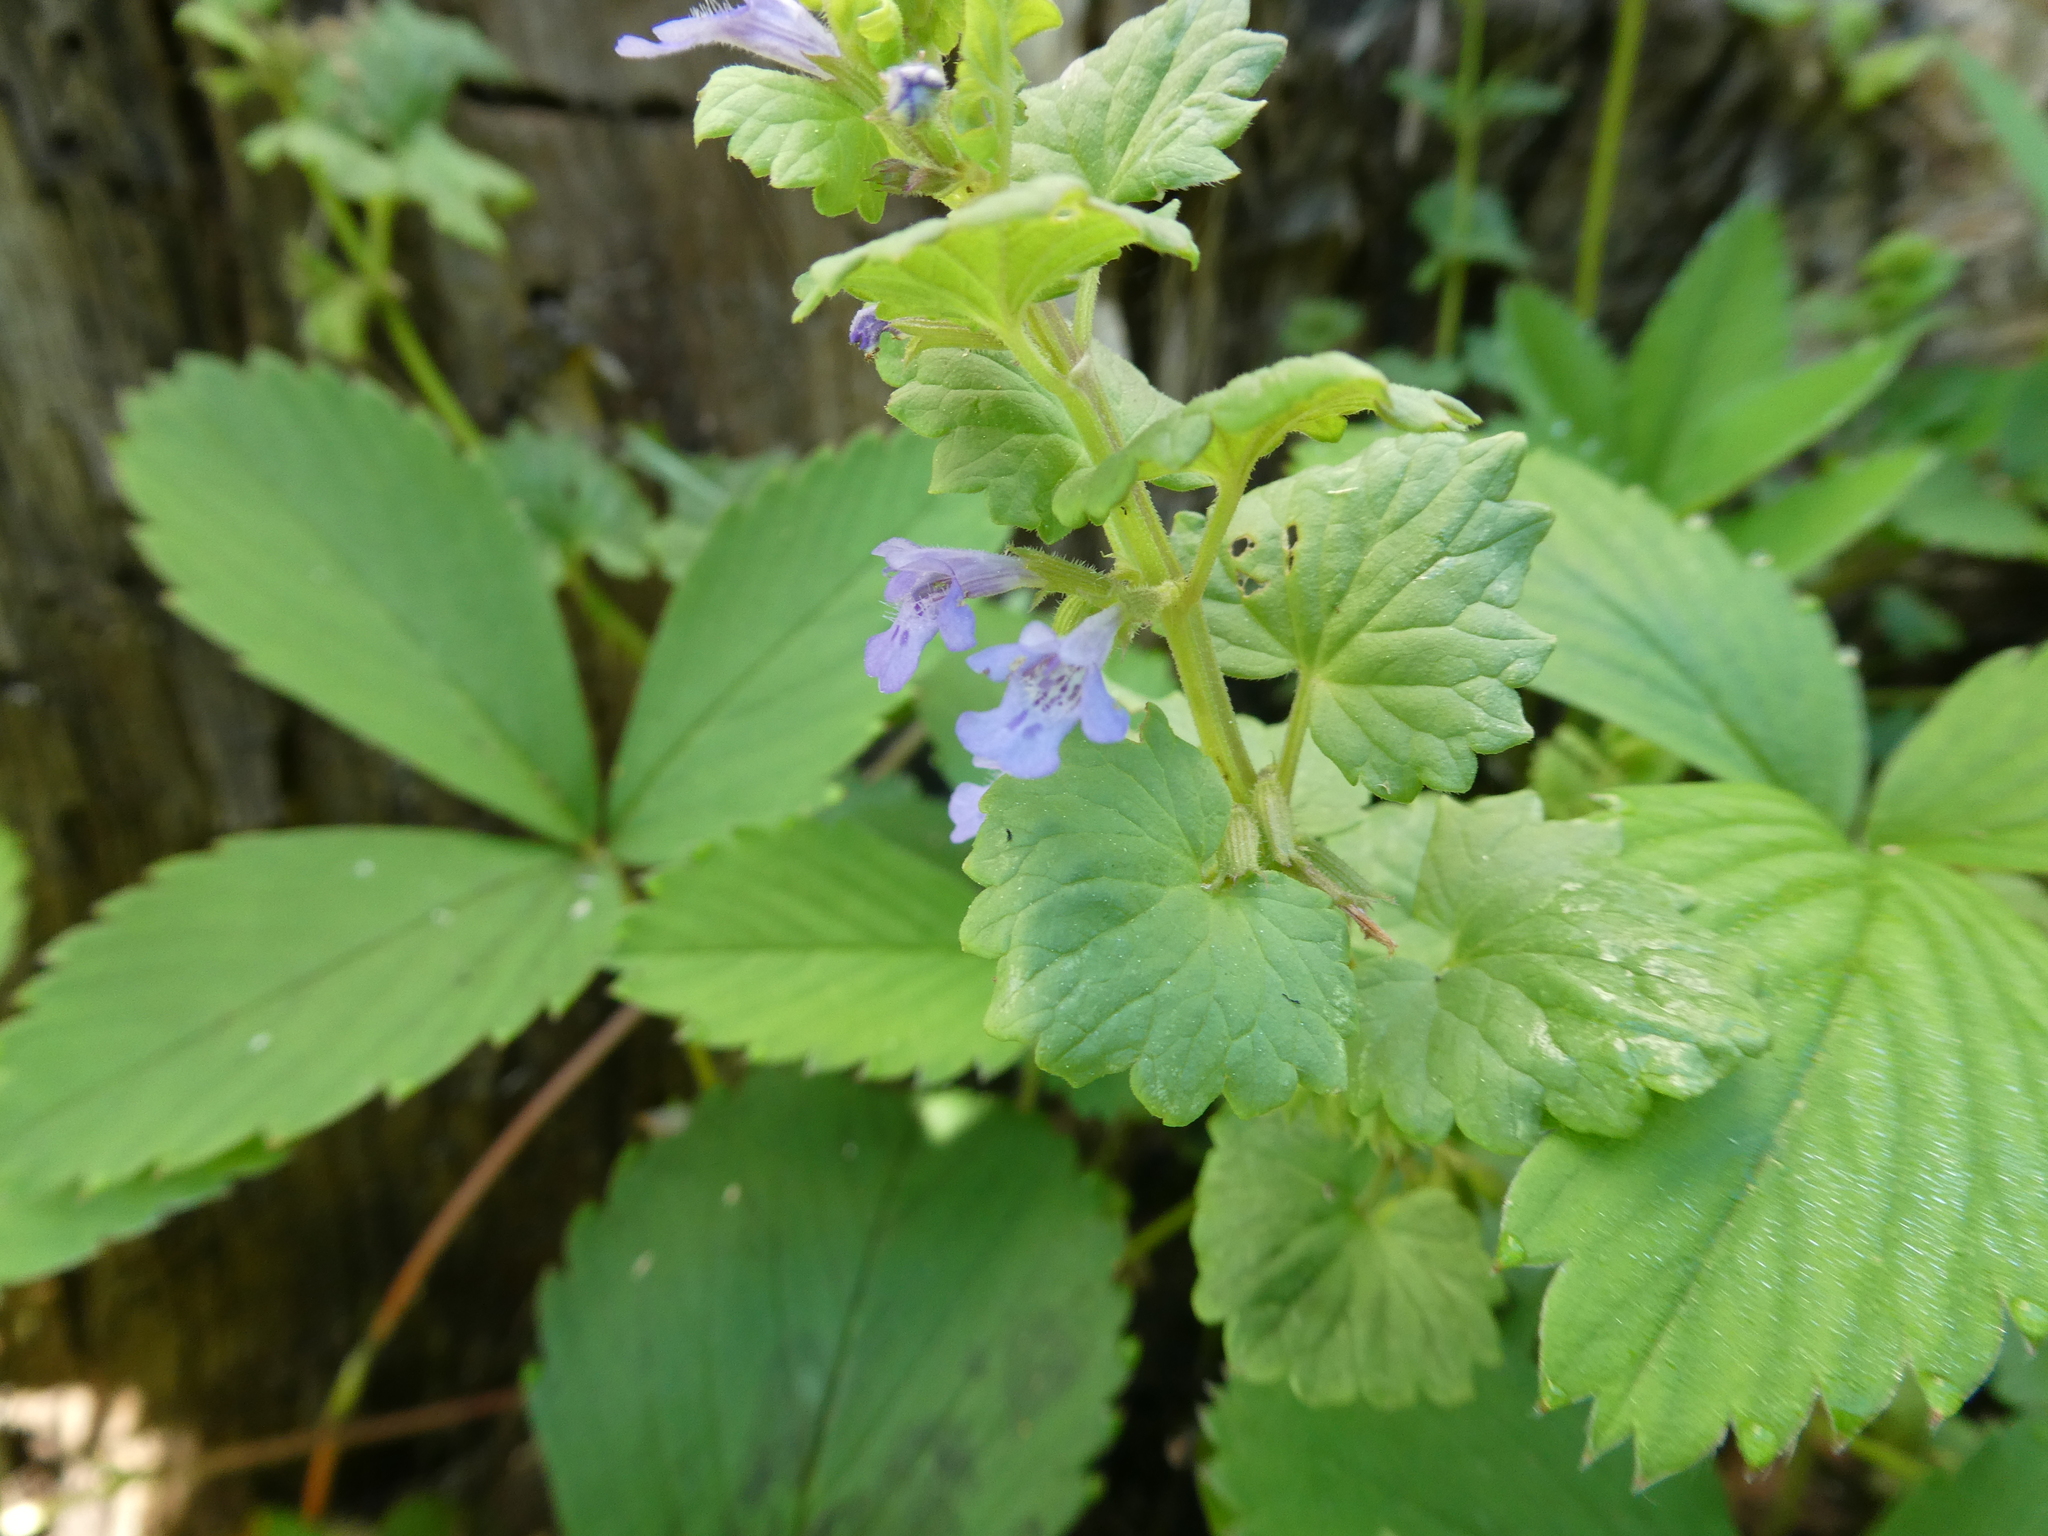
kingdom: Plantae
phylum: Tracheophyta
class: Magnoliopsida
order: Lamiales
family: Lamiaceae
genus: Glechoma
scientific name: Glechoma hederacea
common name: Ground ivy
